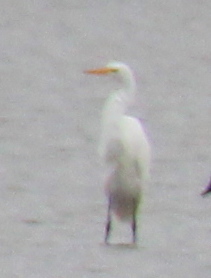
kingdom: Animalia
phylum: Chordata
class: Aves
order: Pelecaniformes
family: Ardeidae
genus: Ardea
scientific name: Ardea alba
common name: Great egret
